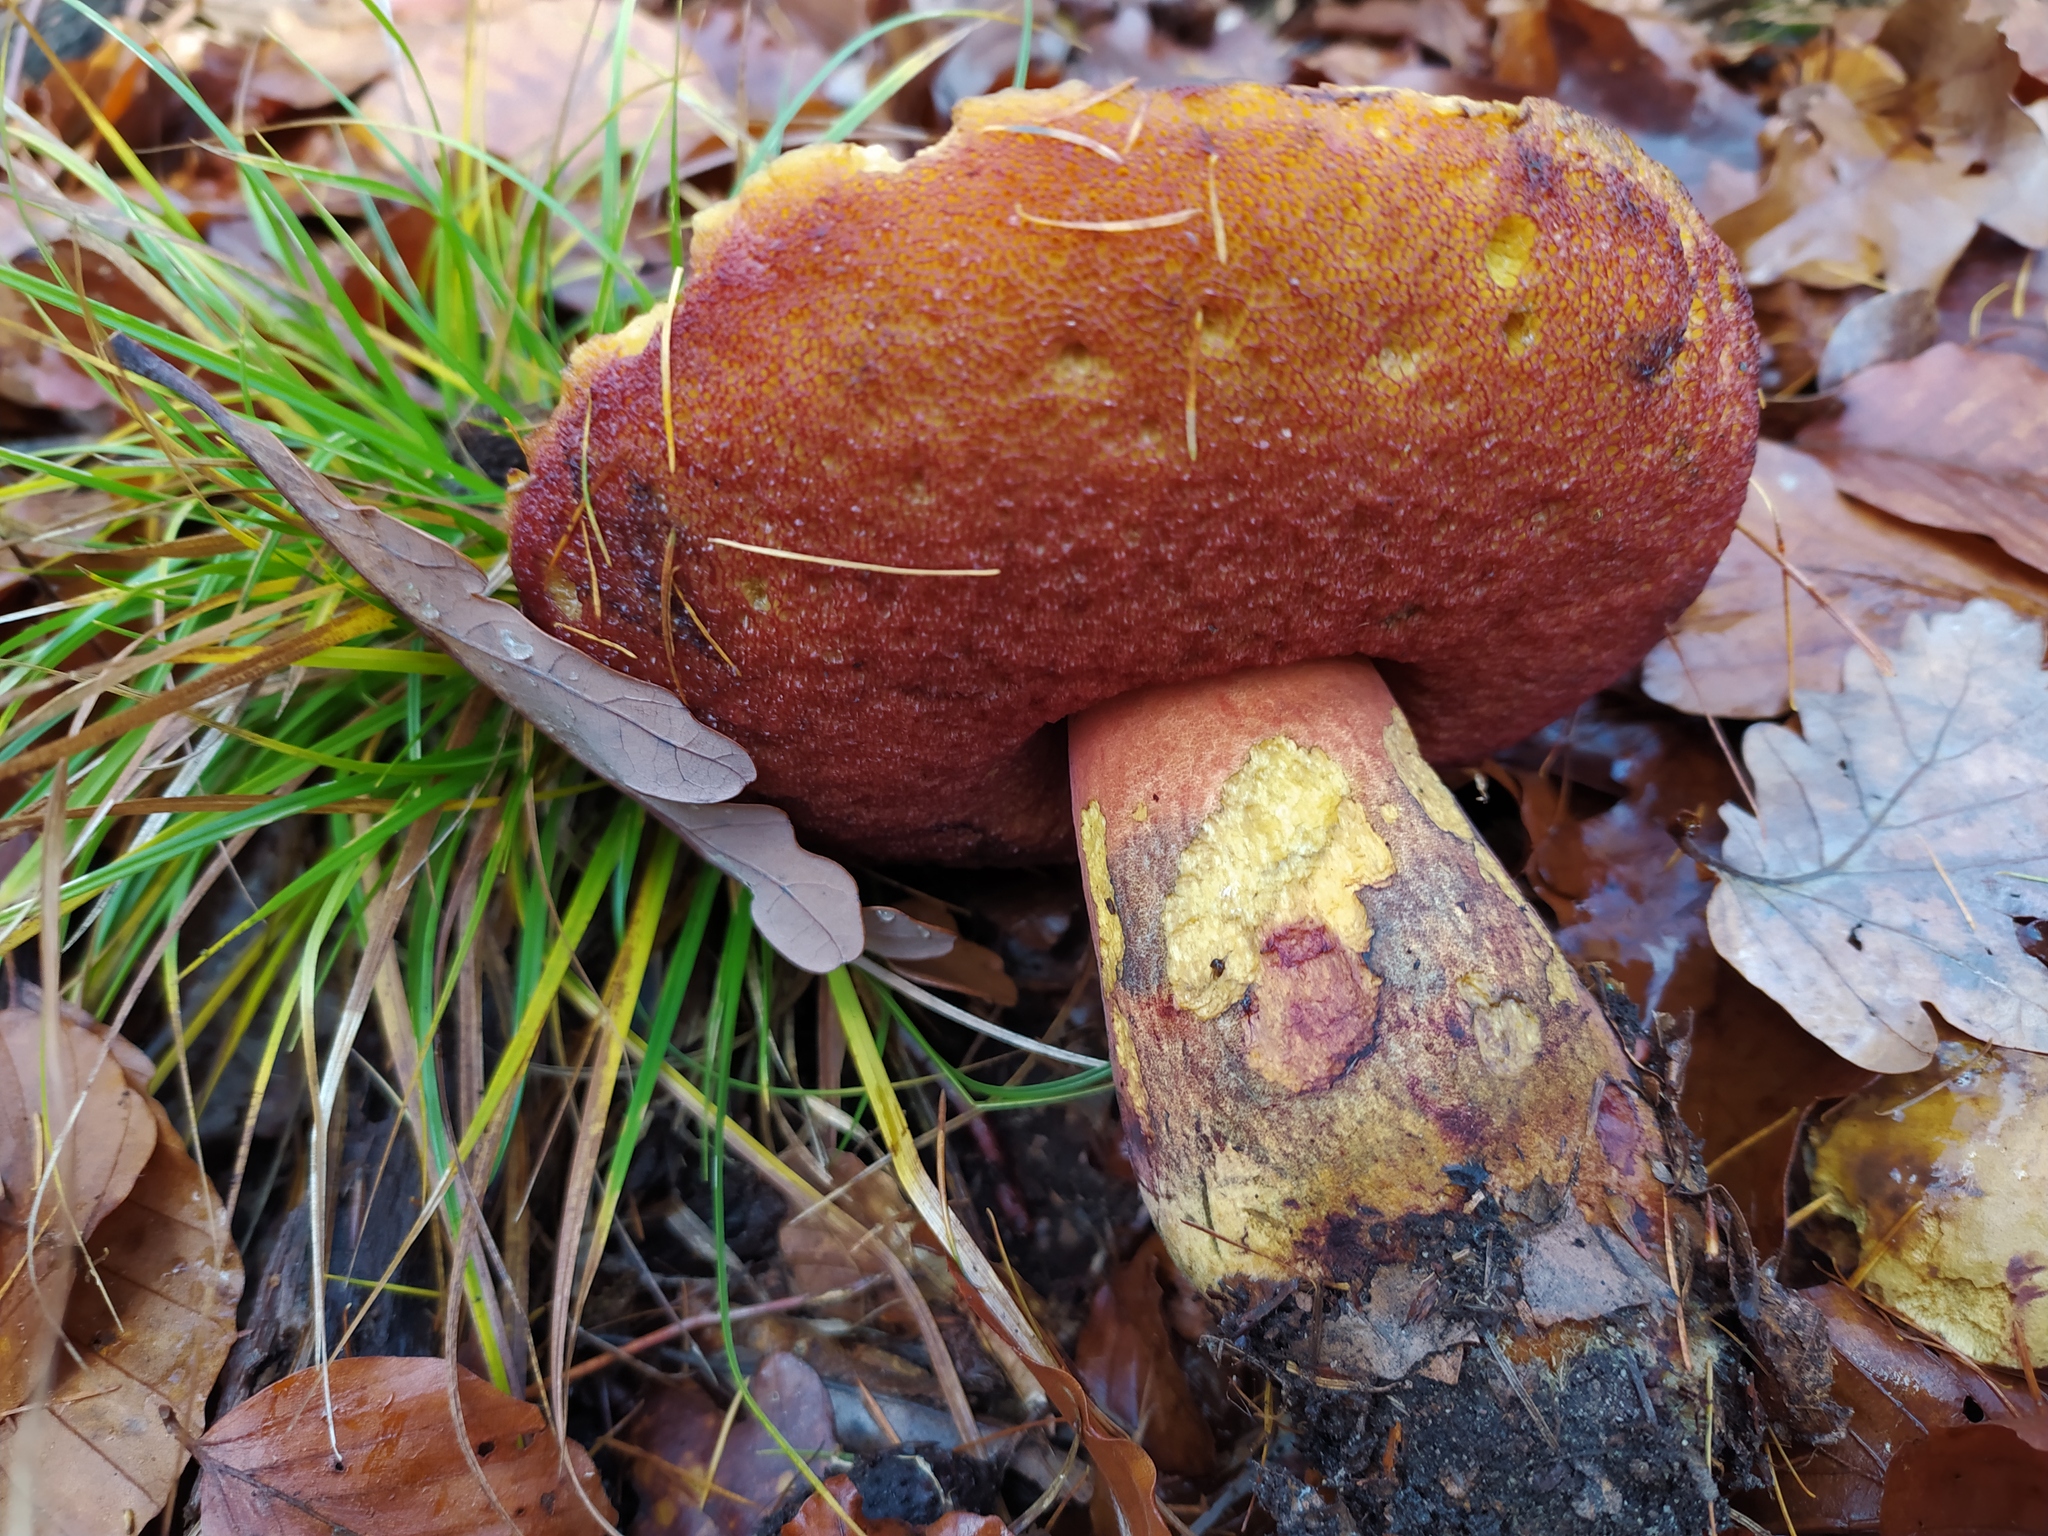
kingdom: Fungi
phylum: Basidiomycota
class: Agaricomycetes
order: Boletales
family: Boletaceae
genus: Neoboletus
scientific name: Neoboletus erythropus
